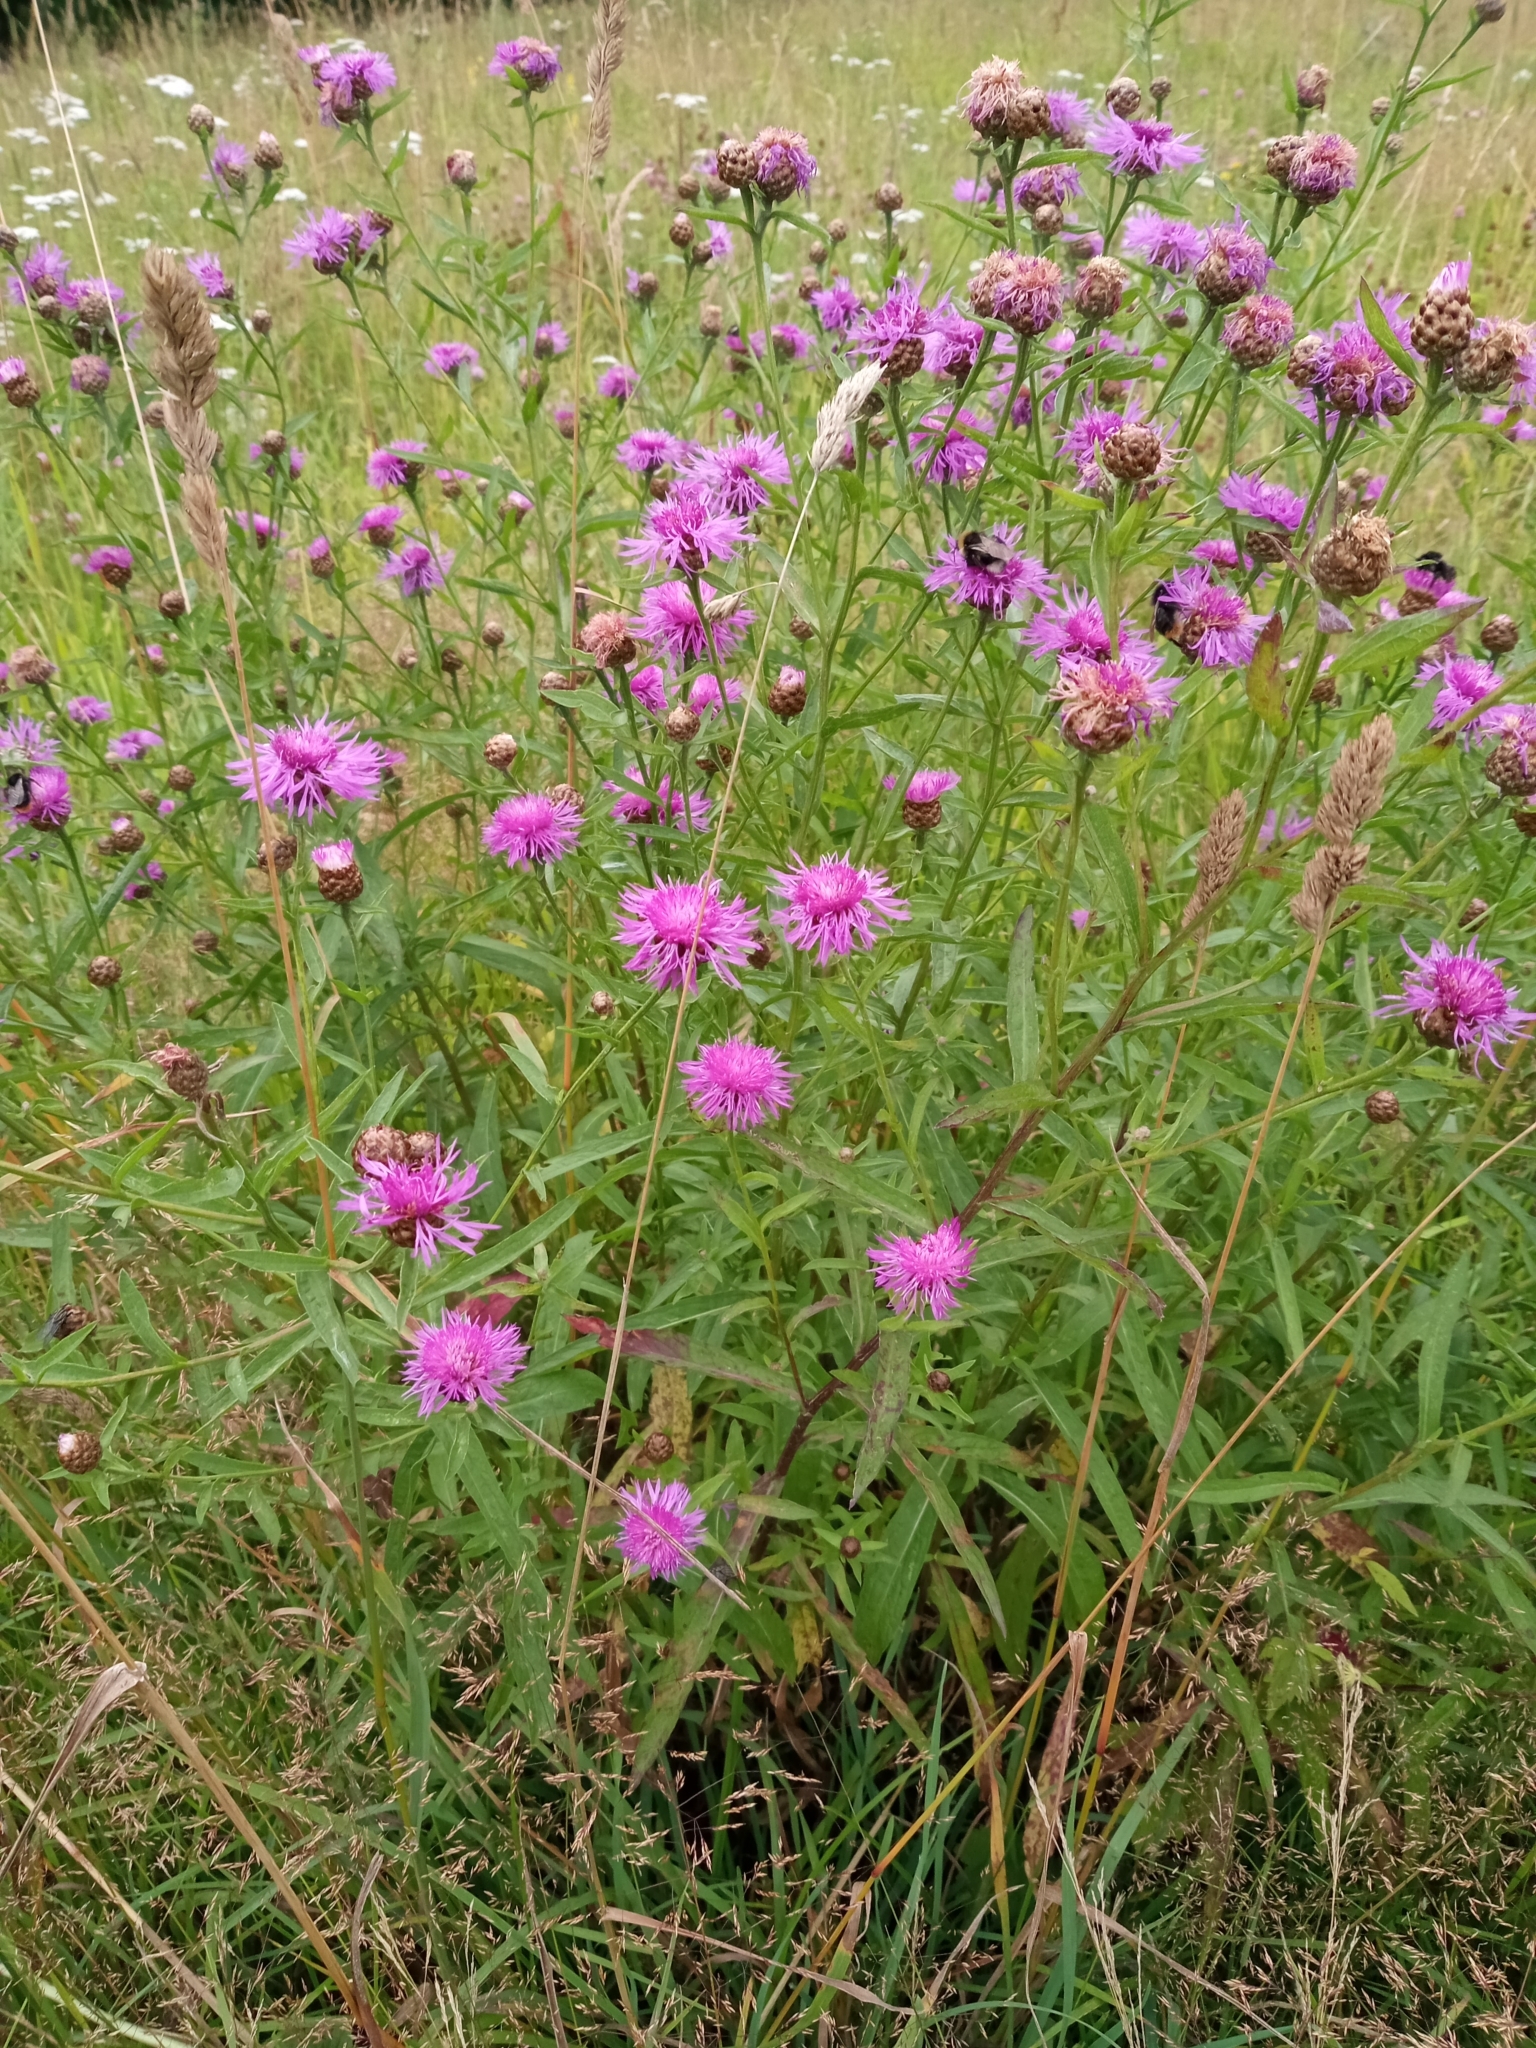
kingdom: Plantae
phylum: Tracheophyta
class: Magnoliopsida
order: Asterales
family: Asteraceae
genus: Centaurea
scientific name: Centaurea jacea
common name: Brown knapweed
